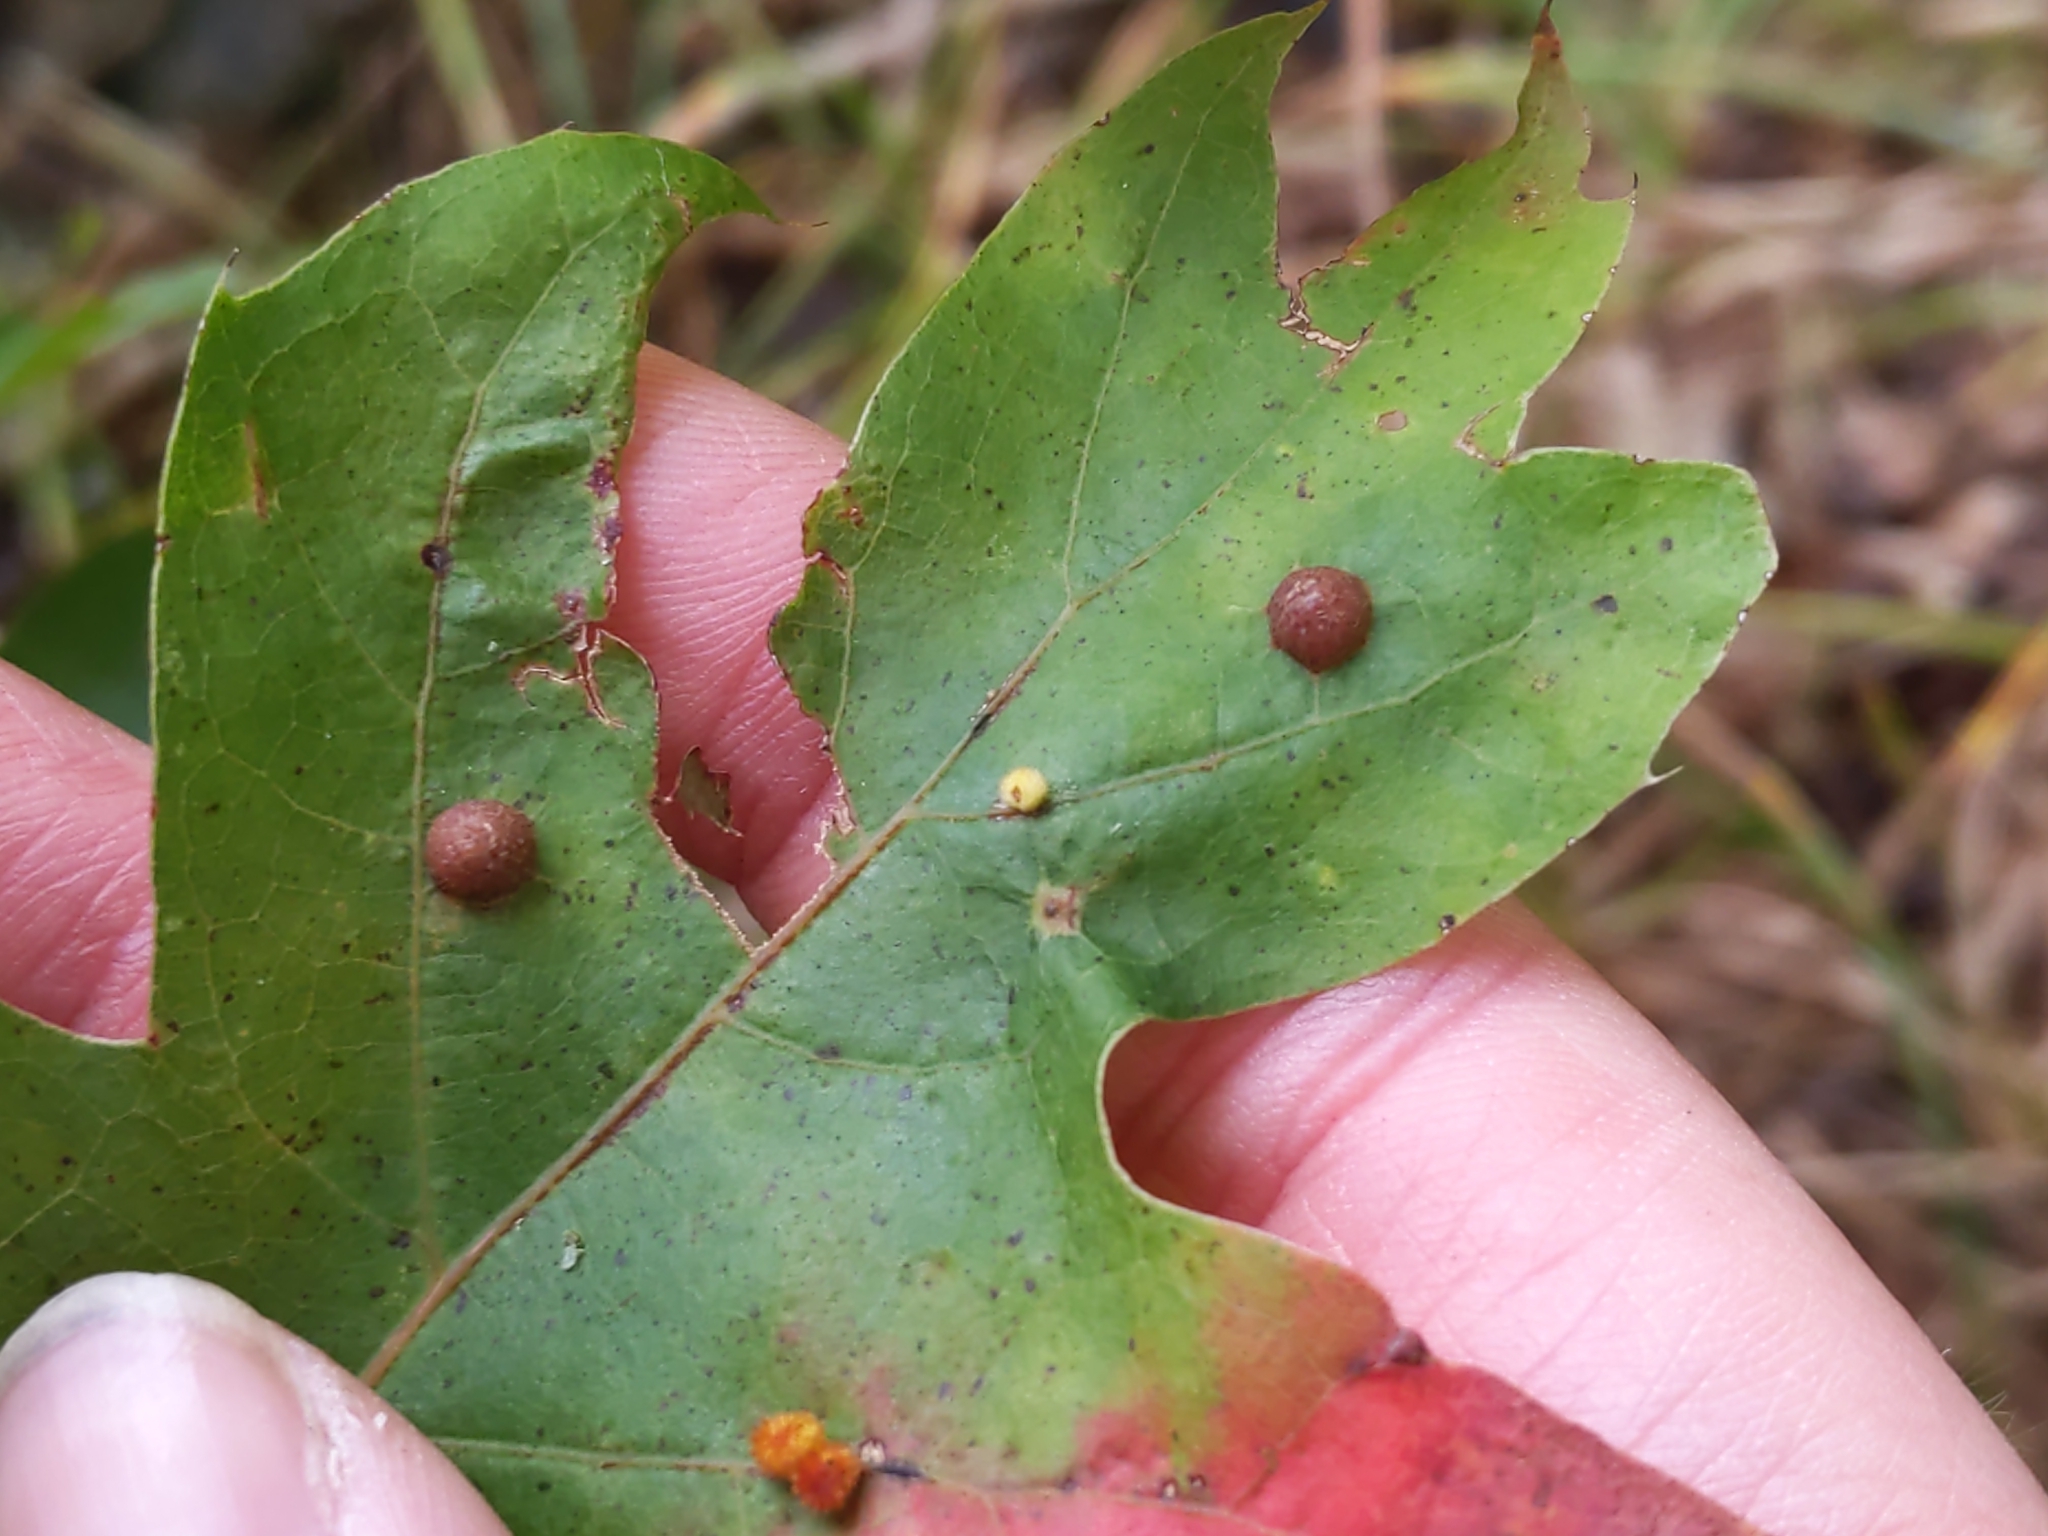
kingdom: Animalia
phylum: Arthropoda
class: Insecta
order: Diptera
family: Cecidomyiidae
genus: Polystepha
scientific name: Polystepha pilulae
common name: Oak leaf gall midge
